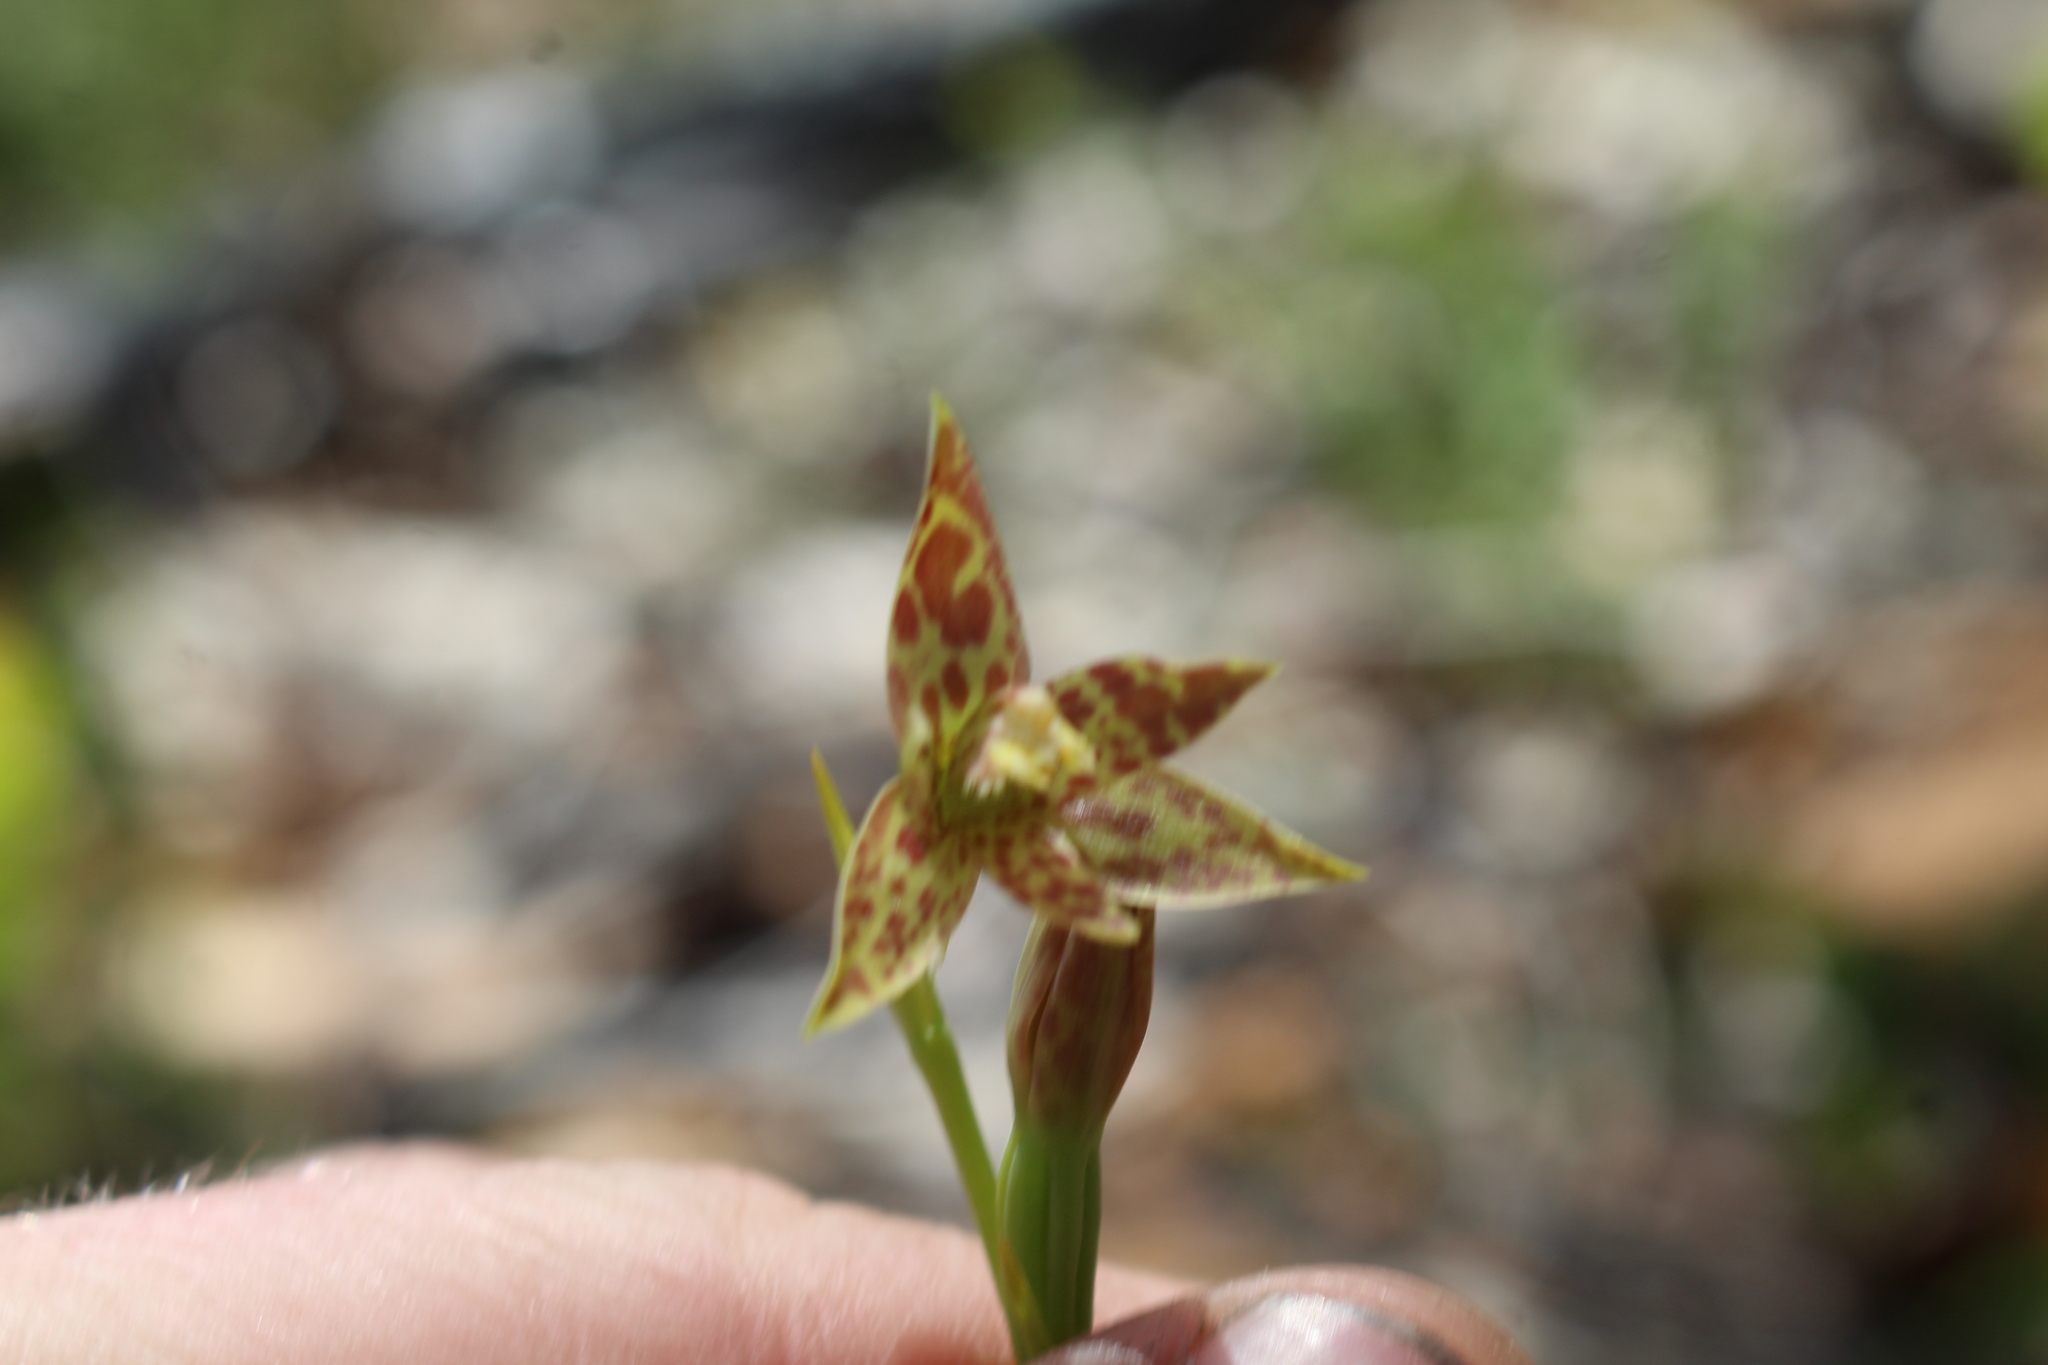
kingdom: Plantae
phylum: Tracheophyta
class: Liliopsida
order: Asparagales
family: Orchidaceae
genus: Thelymitra
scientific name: Thelymitra benthamiana
